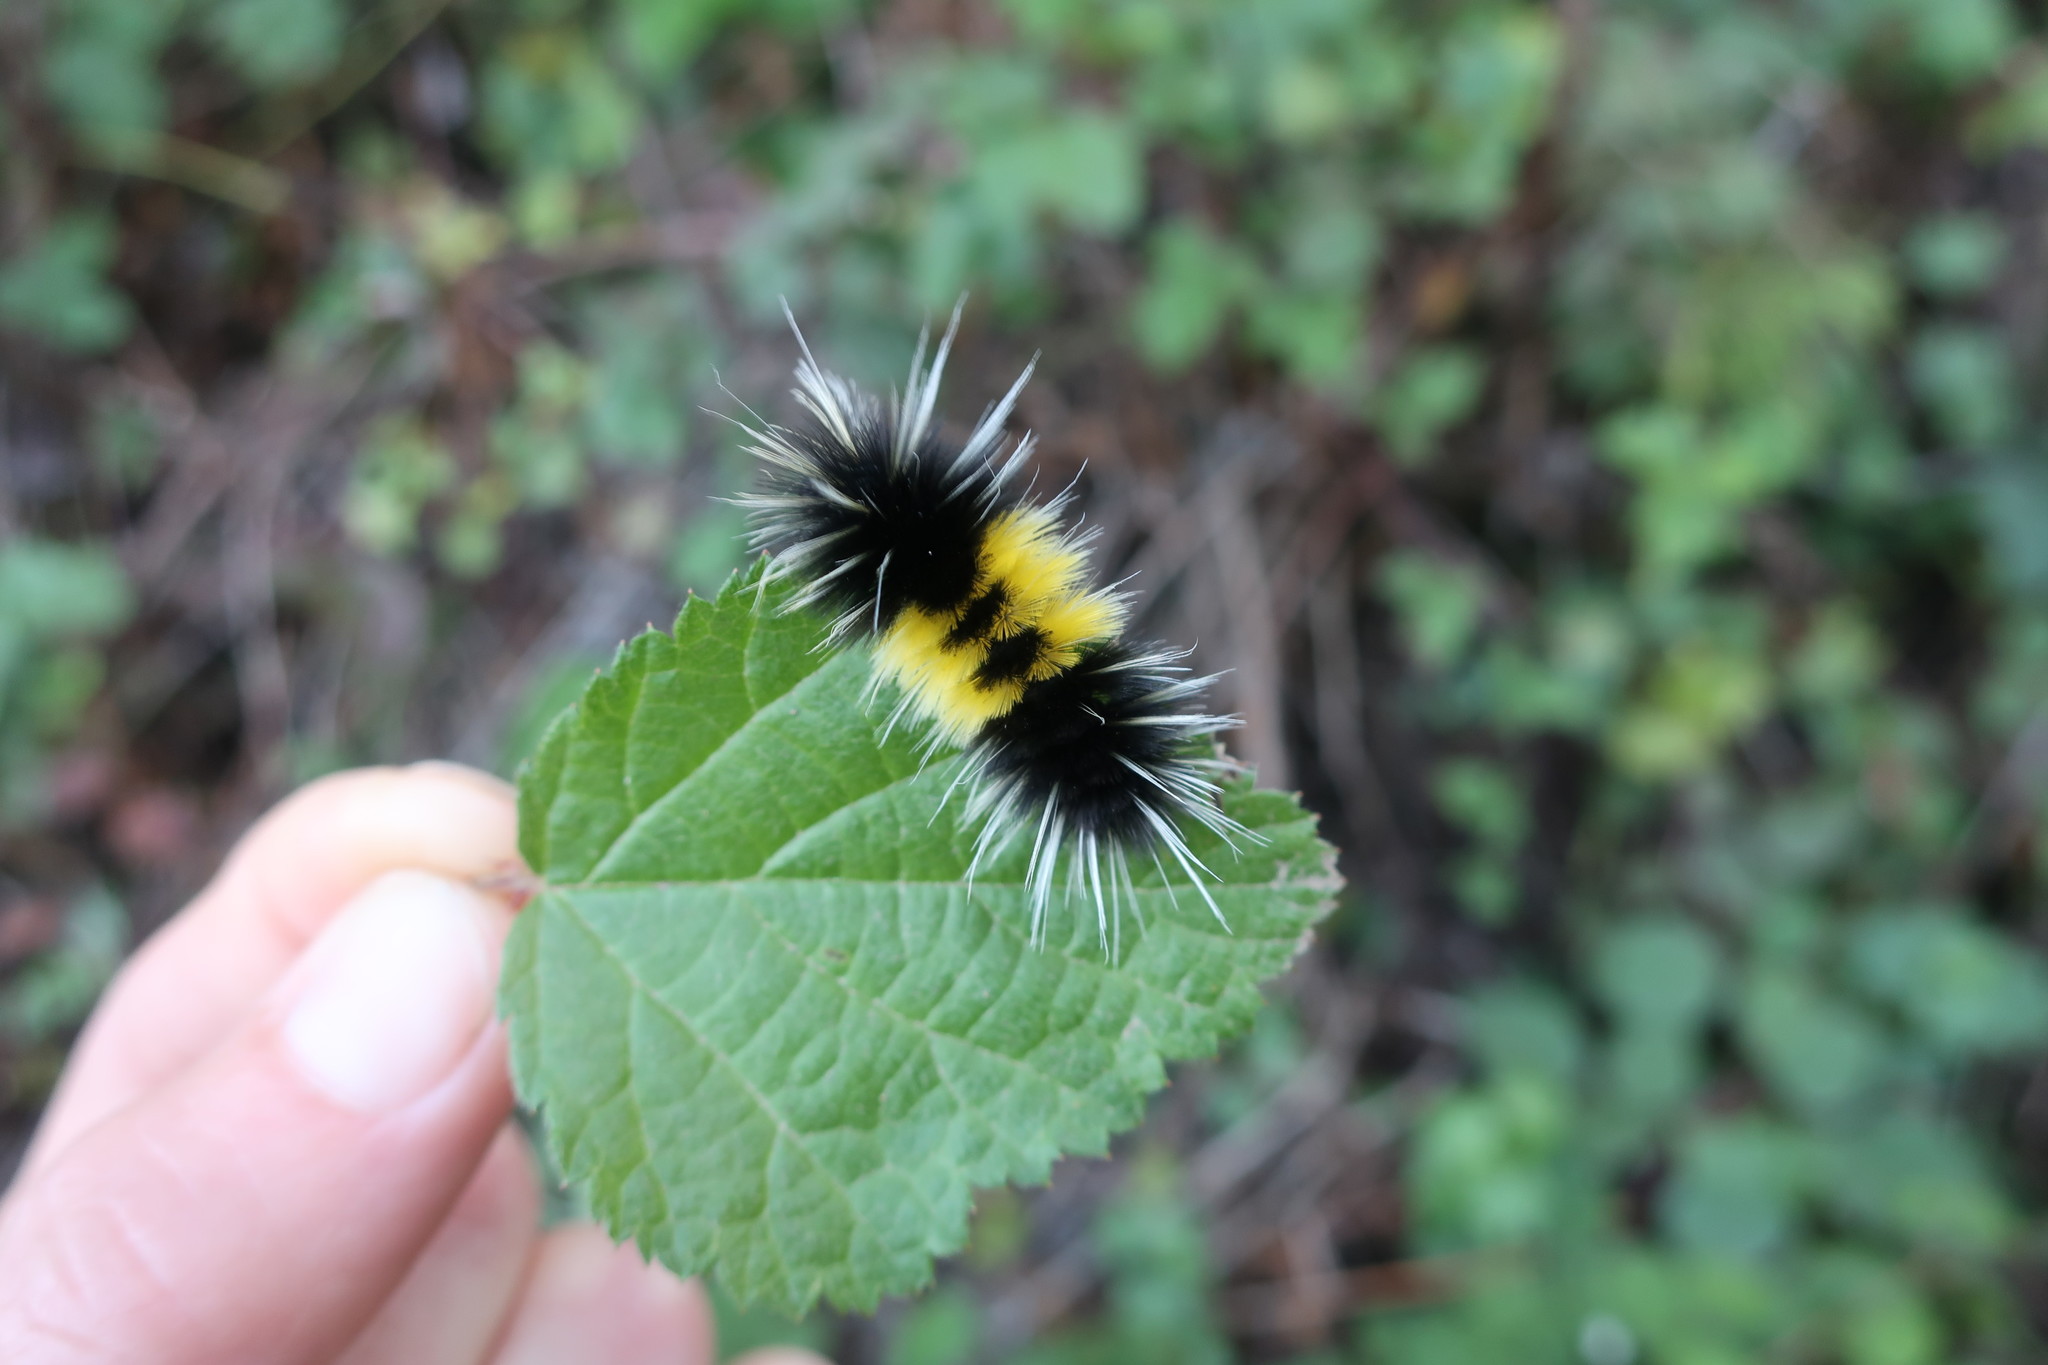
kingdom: Animalia
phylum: Arthropoda
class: Insecta
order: Lepidoptera
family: Erebidae
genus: Lophocampa
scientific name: Lophocampa maculata
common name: Spotted tussock moth
